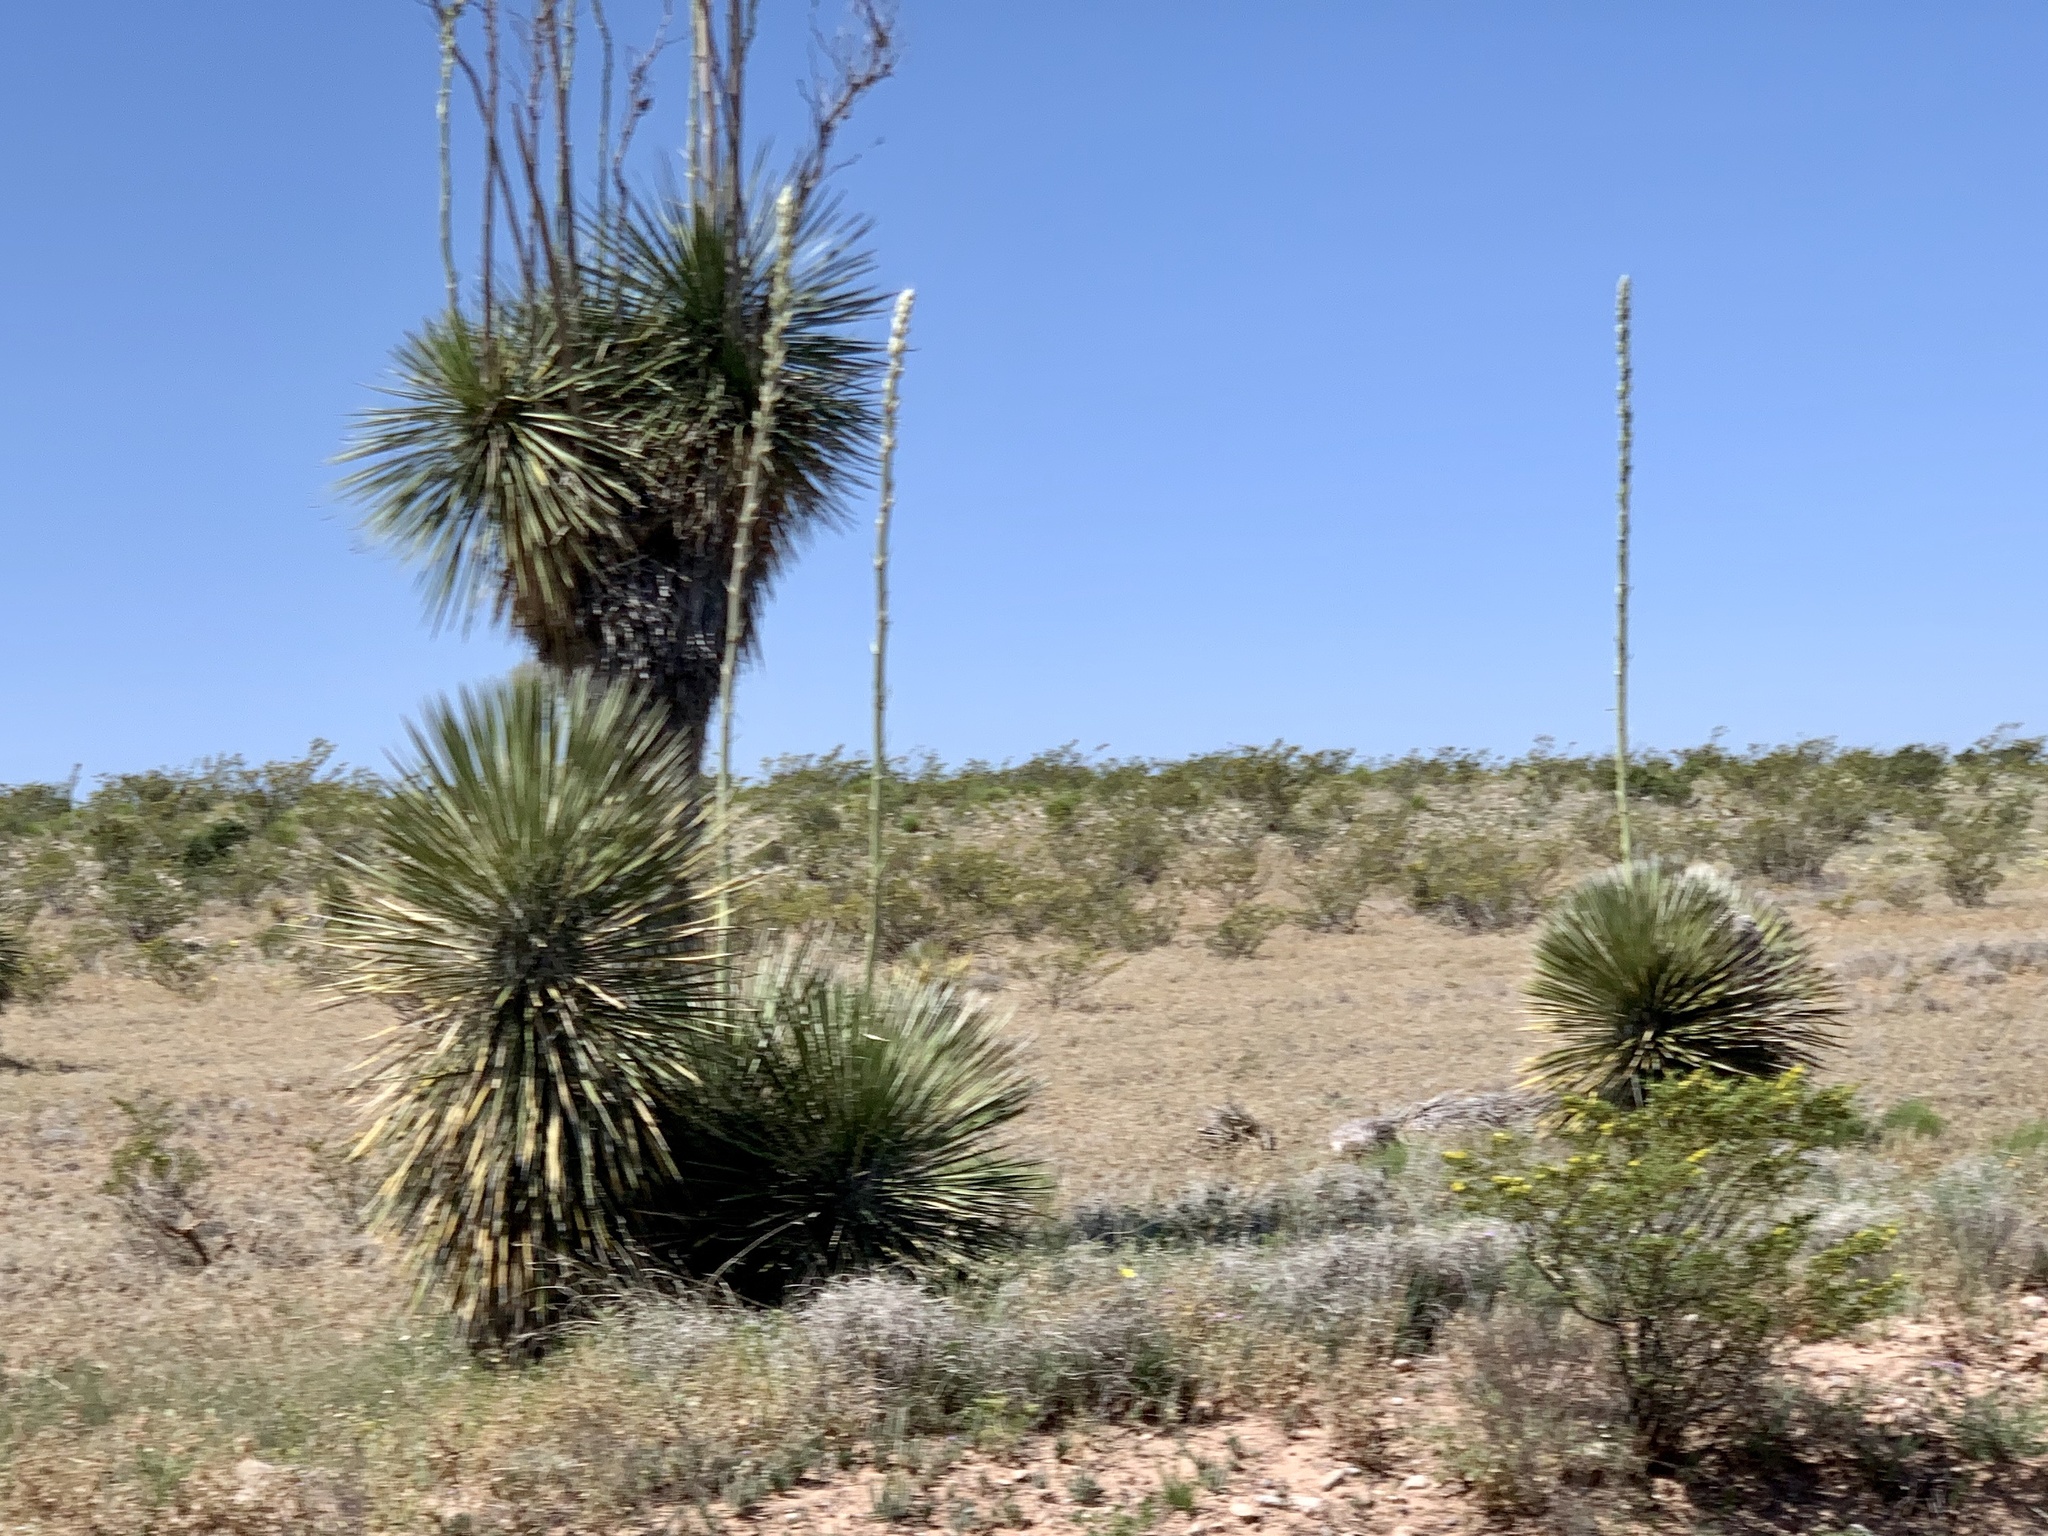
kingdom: Plantae
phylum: Tracheophyta
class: Liliopsida
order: Asparagales
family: Asparagaceae
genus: Yucca
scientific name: Yucca elata
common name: Palmella
